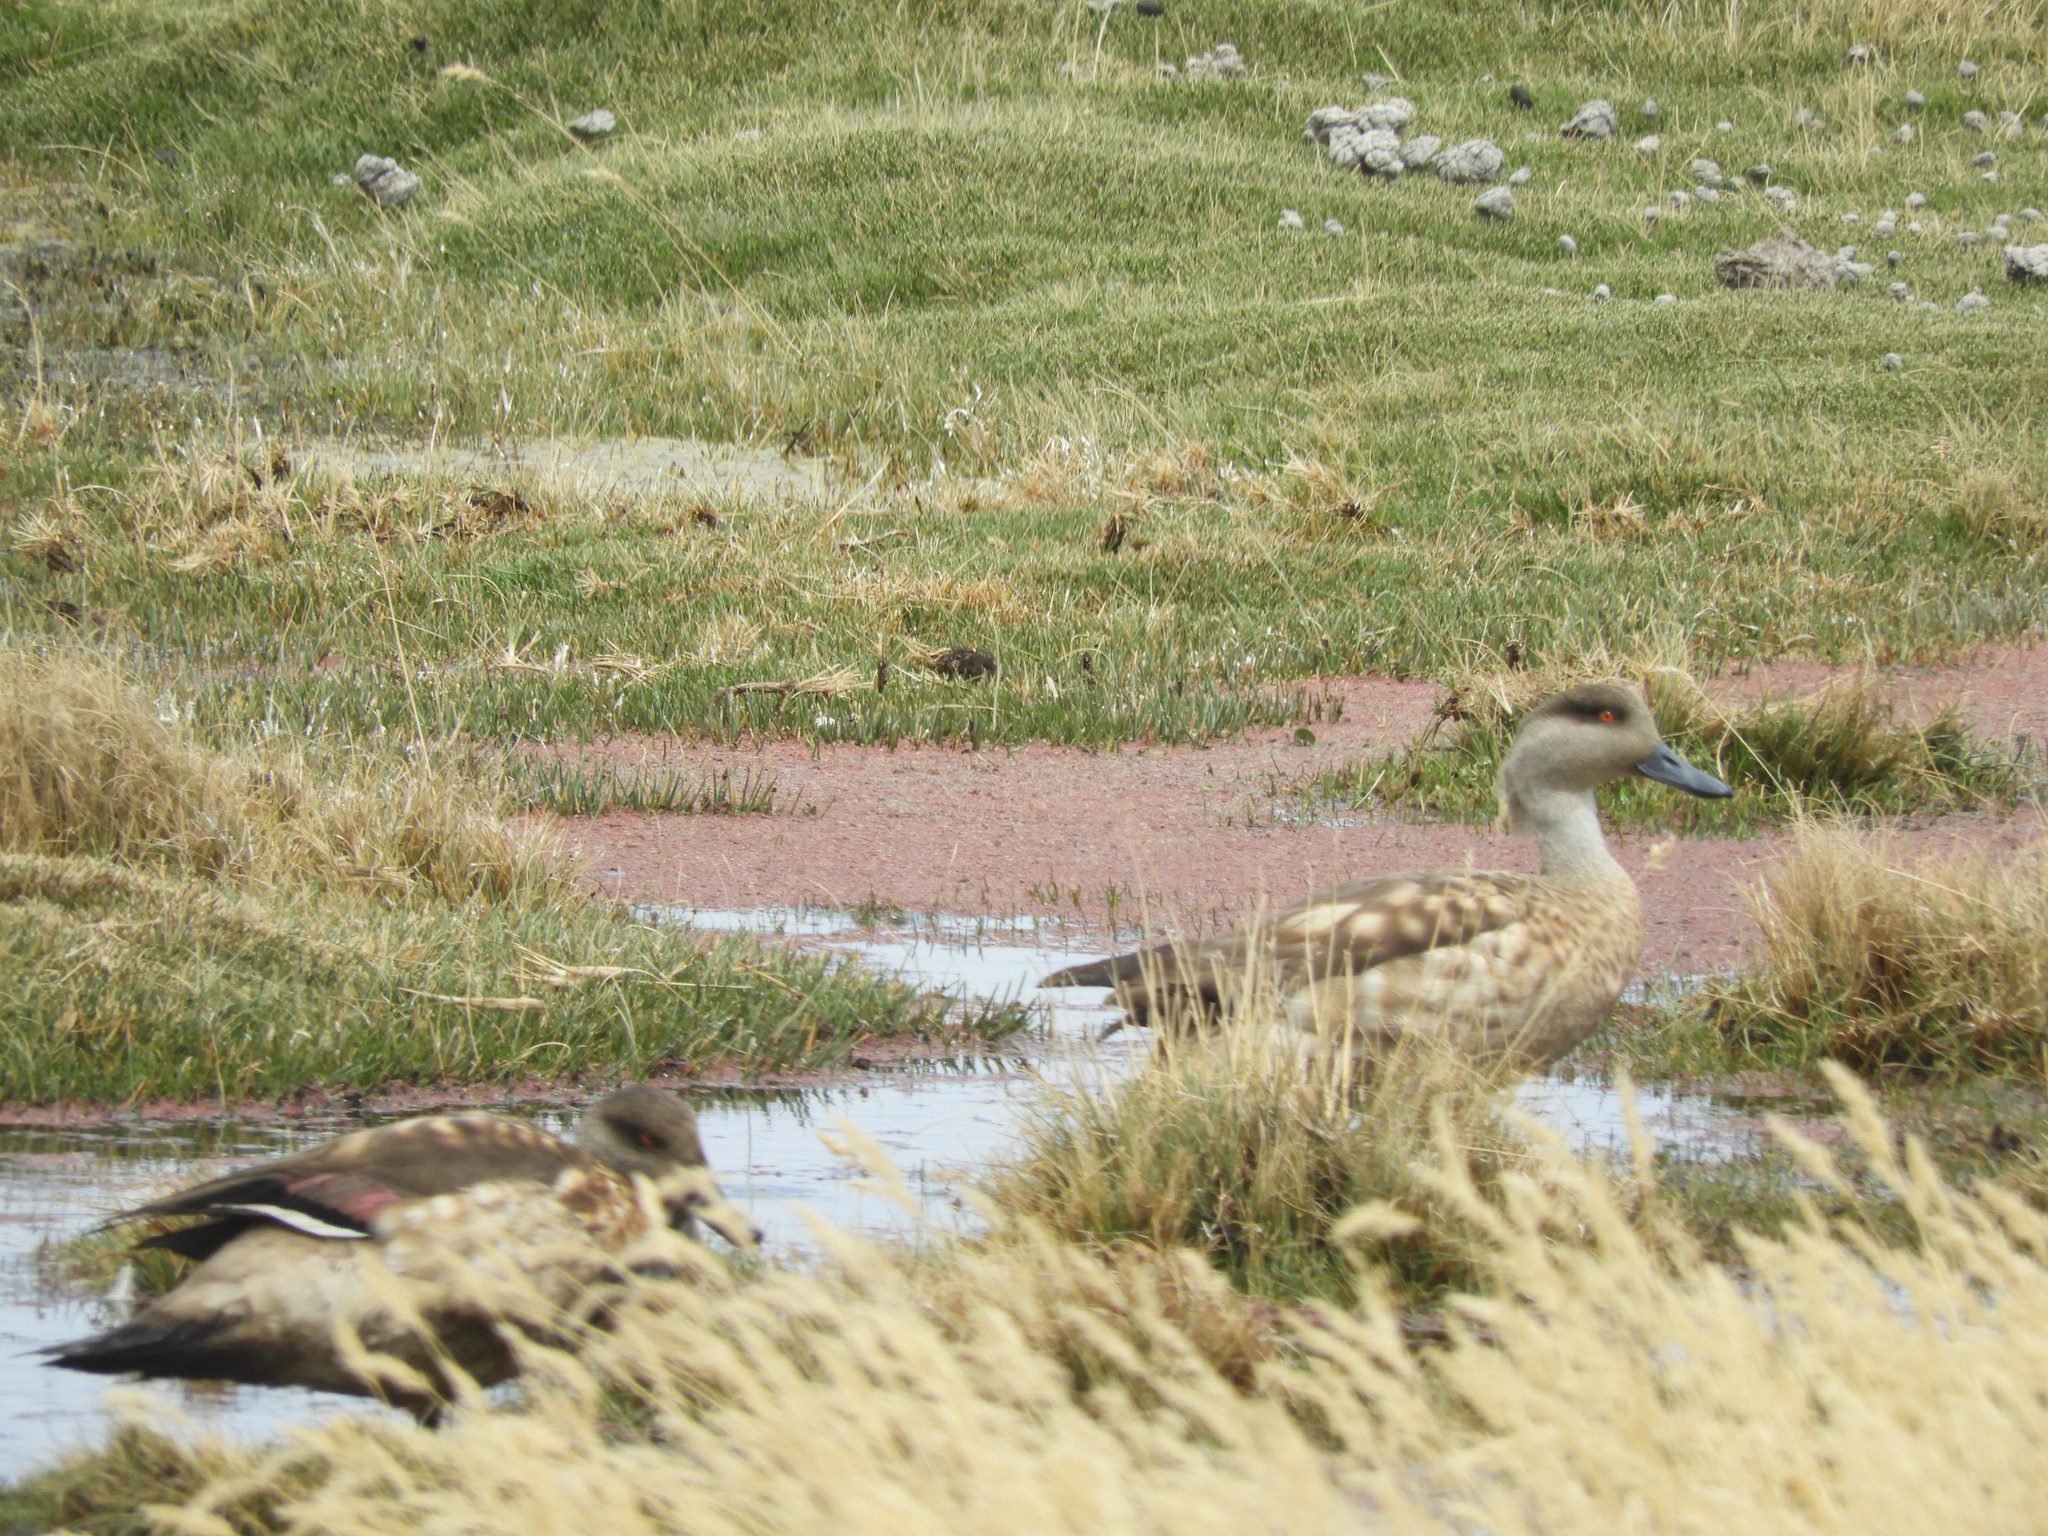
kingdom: Animalia
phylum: Chordata
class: Aves
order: Anseriformes
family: Anatidae
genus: Lophonetta
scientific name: Lophonetta specularioides
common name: Crested duck
